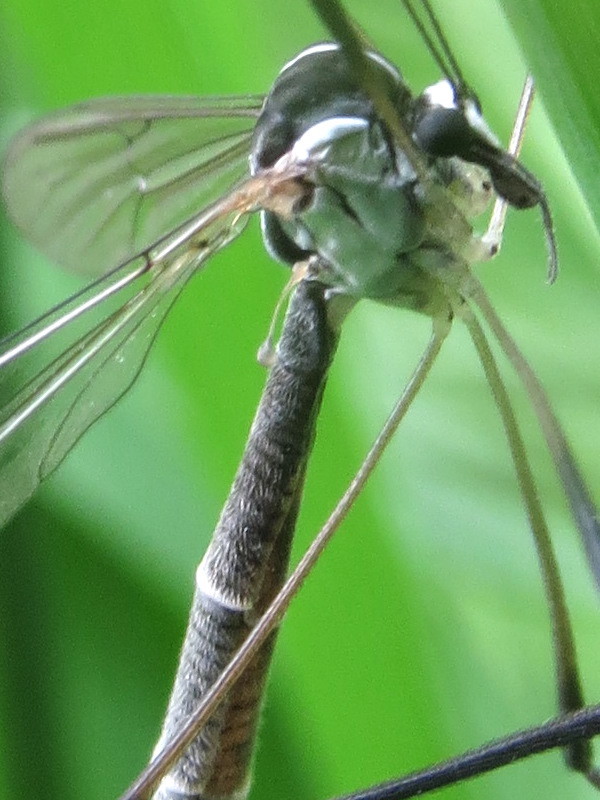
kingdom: Animalia
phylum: Arthropoda
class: Insecta
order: Diptera
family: Ptychopteridae
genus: Bittacomorpha
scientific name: Bittacomorpha clavipes
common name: Eastern phantom crane fly
